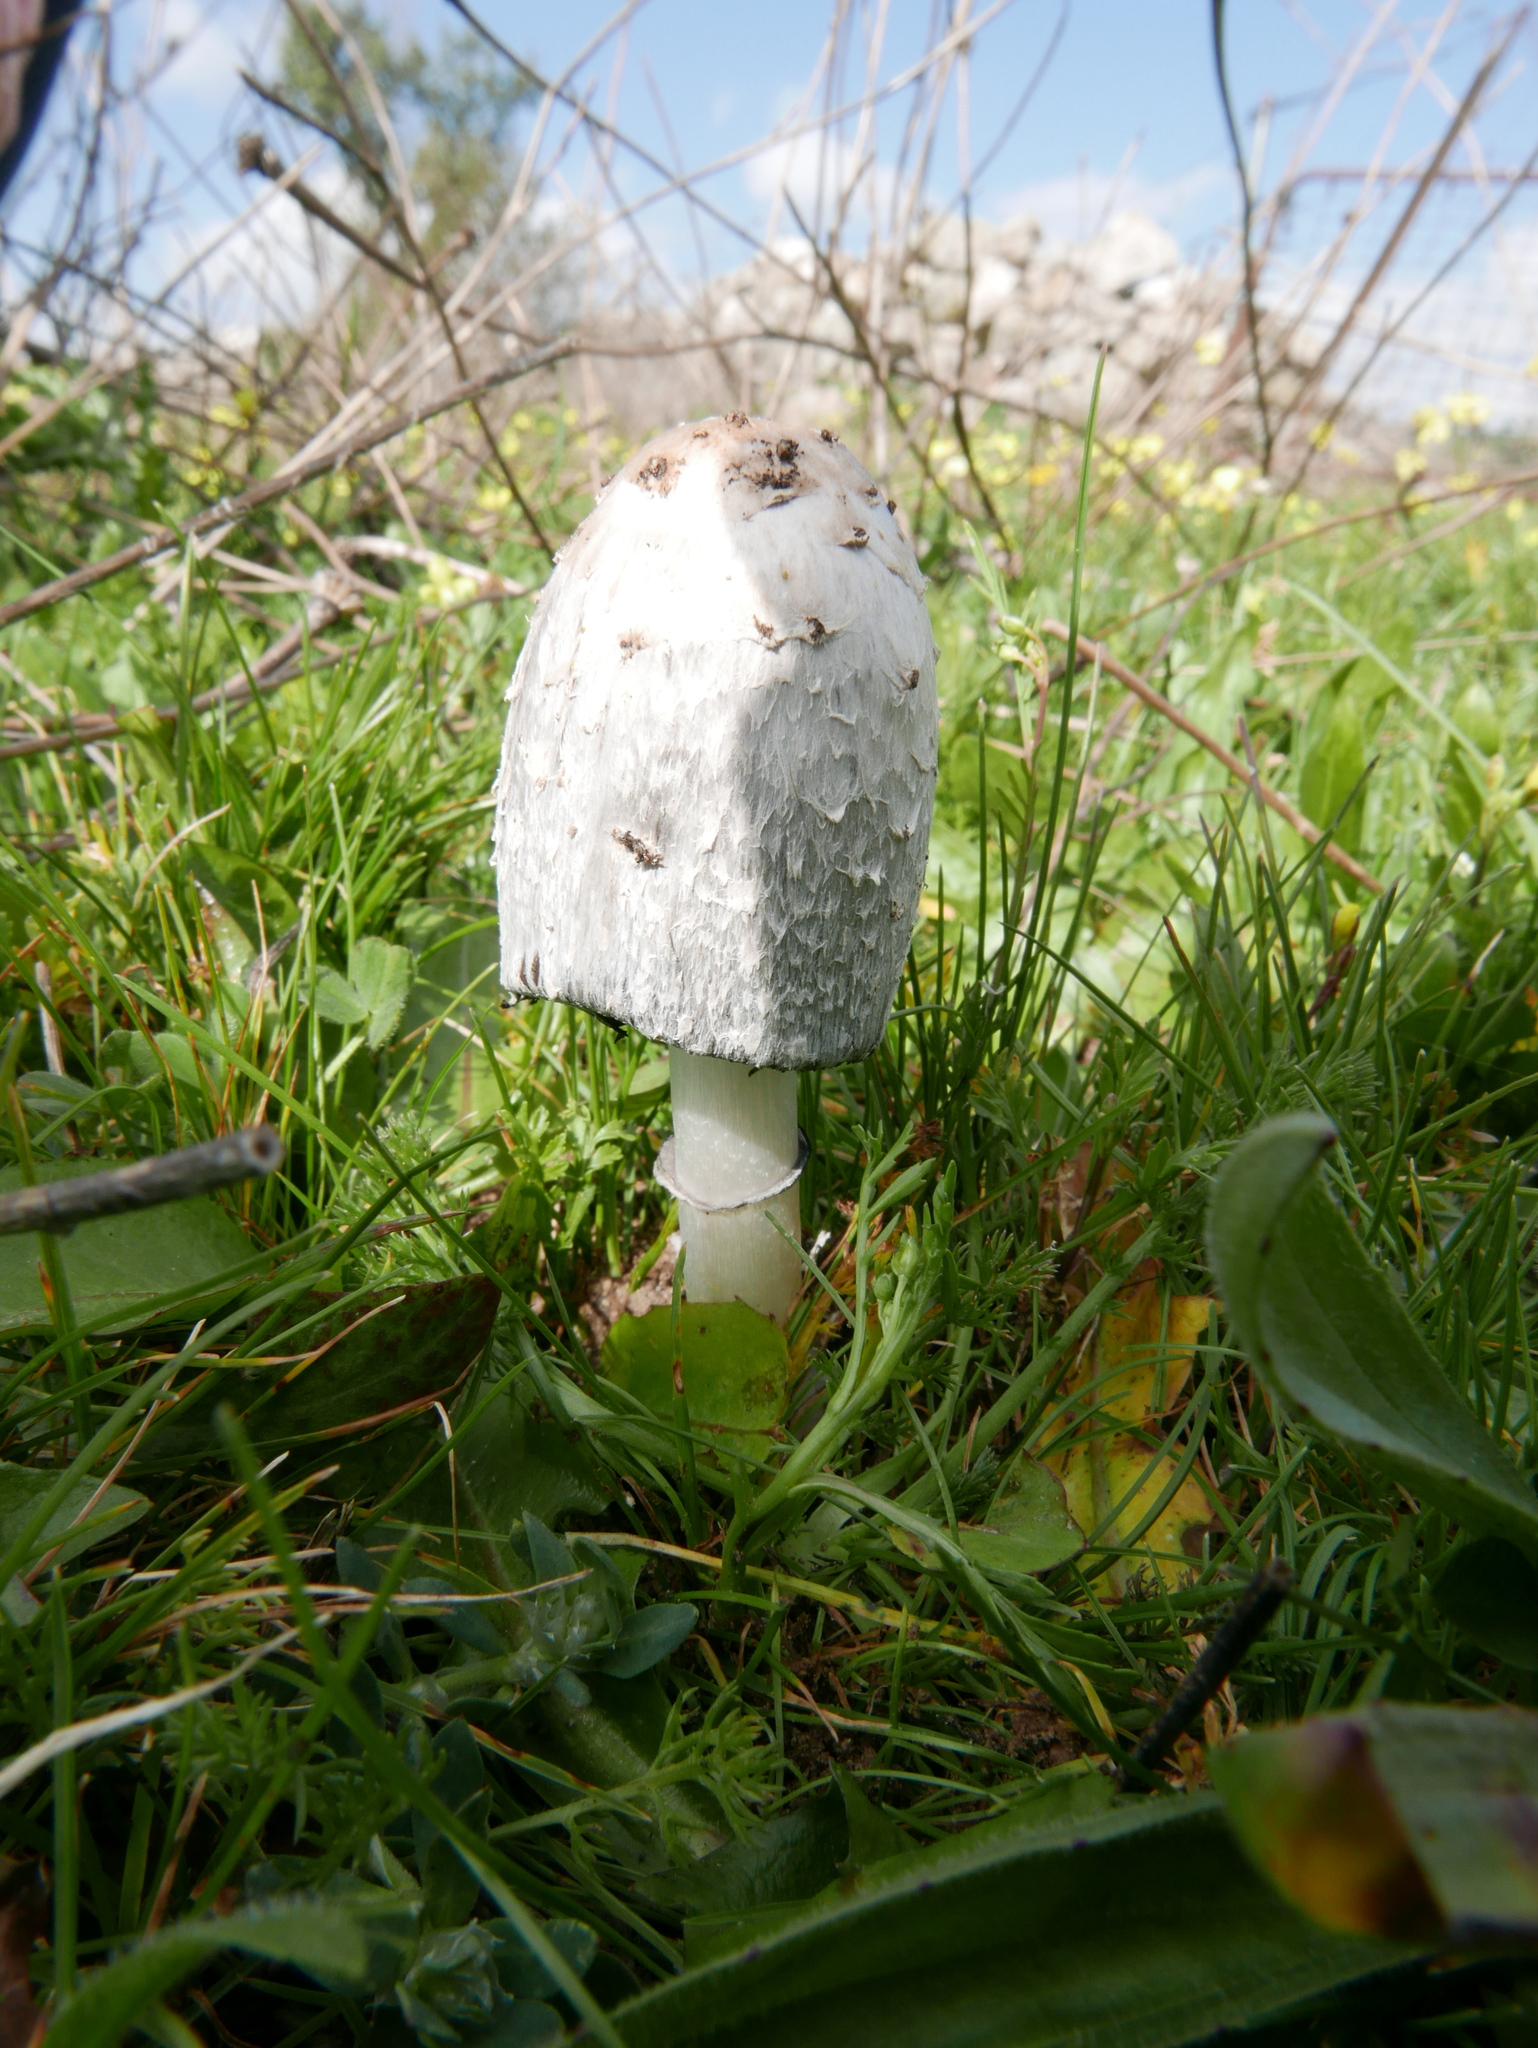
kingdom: Fungi
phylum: Basidiomycota
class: Agaricomycetes
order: Agaricales
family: Agaricaceae
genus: Coprinus
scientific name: Coprinus comatus
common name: Lawyer's wig
